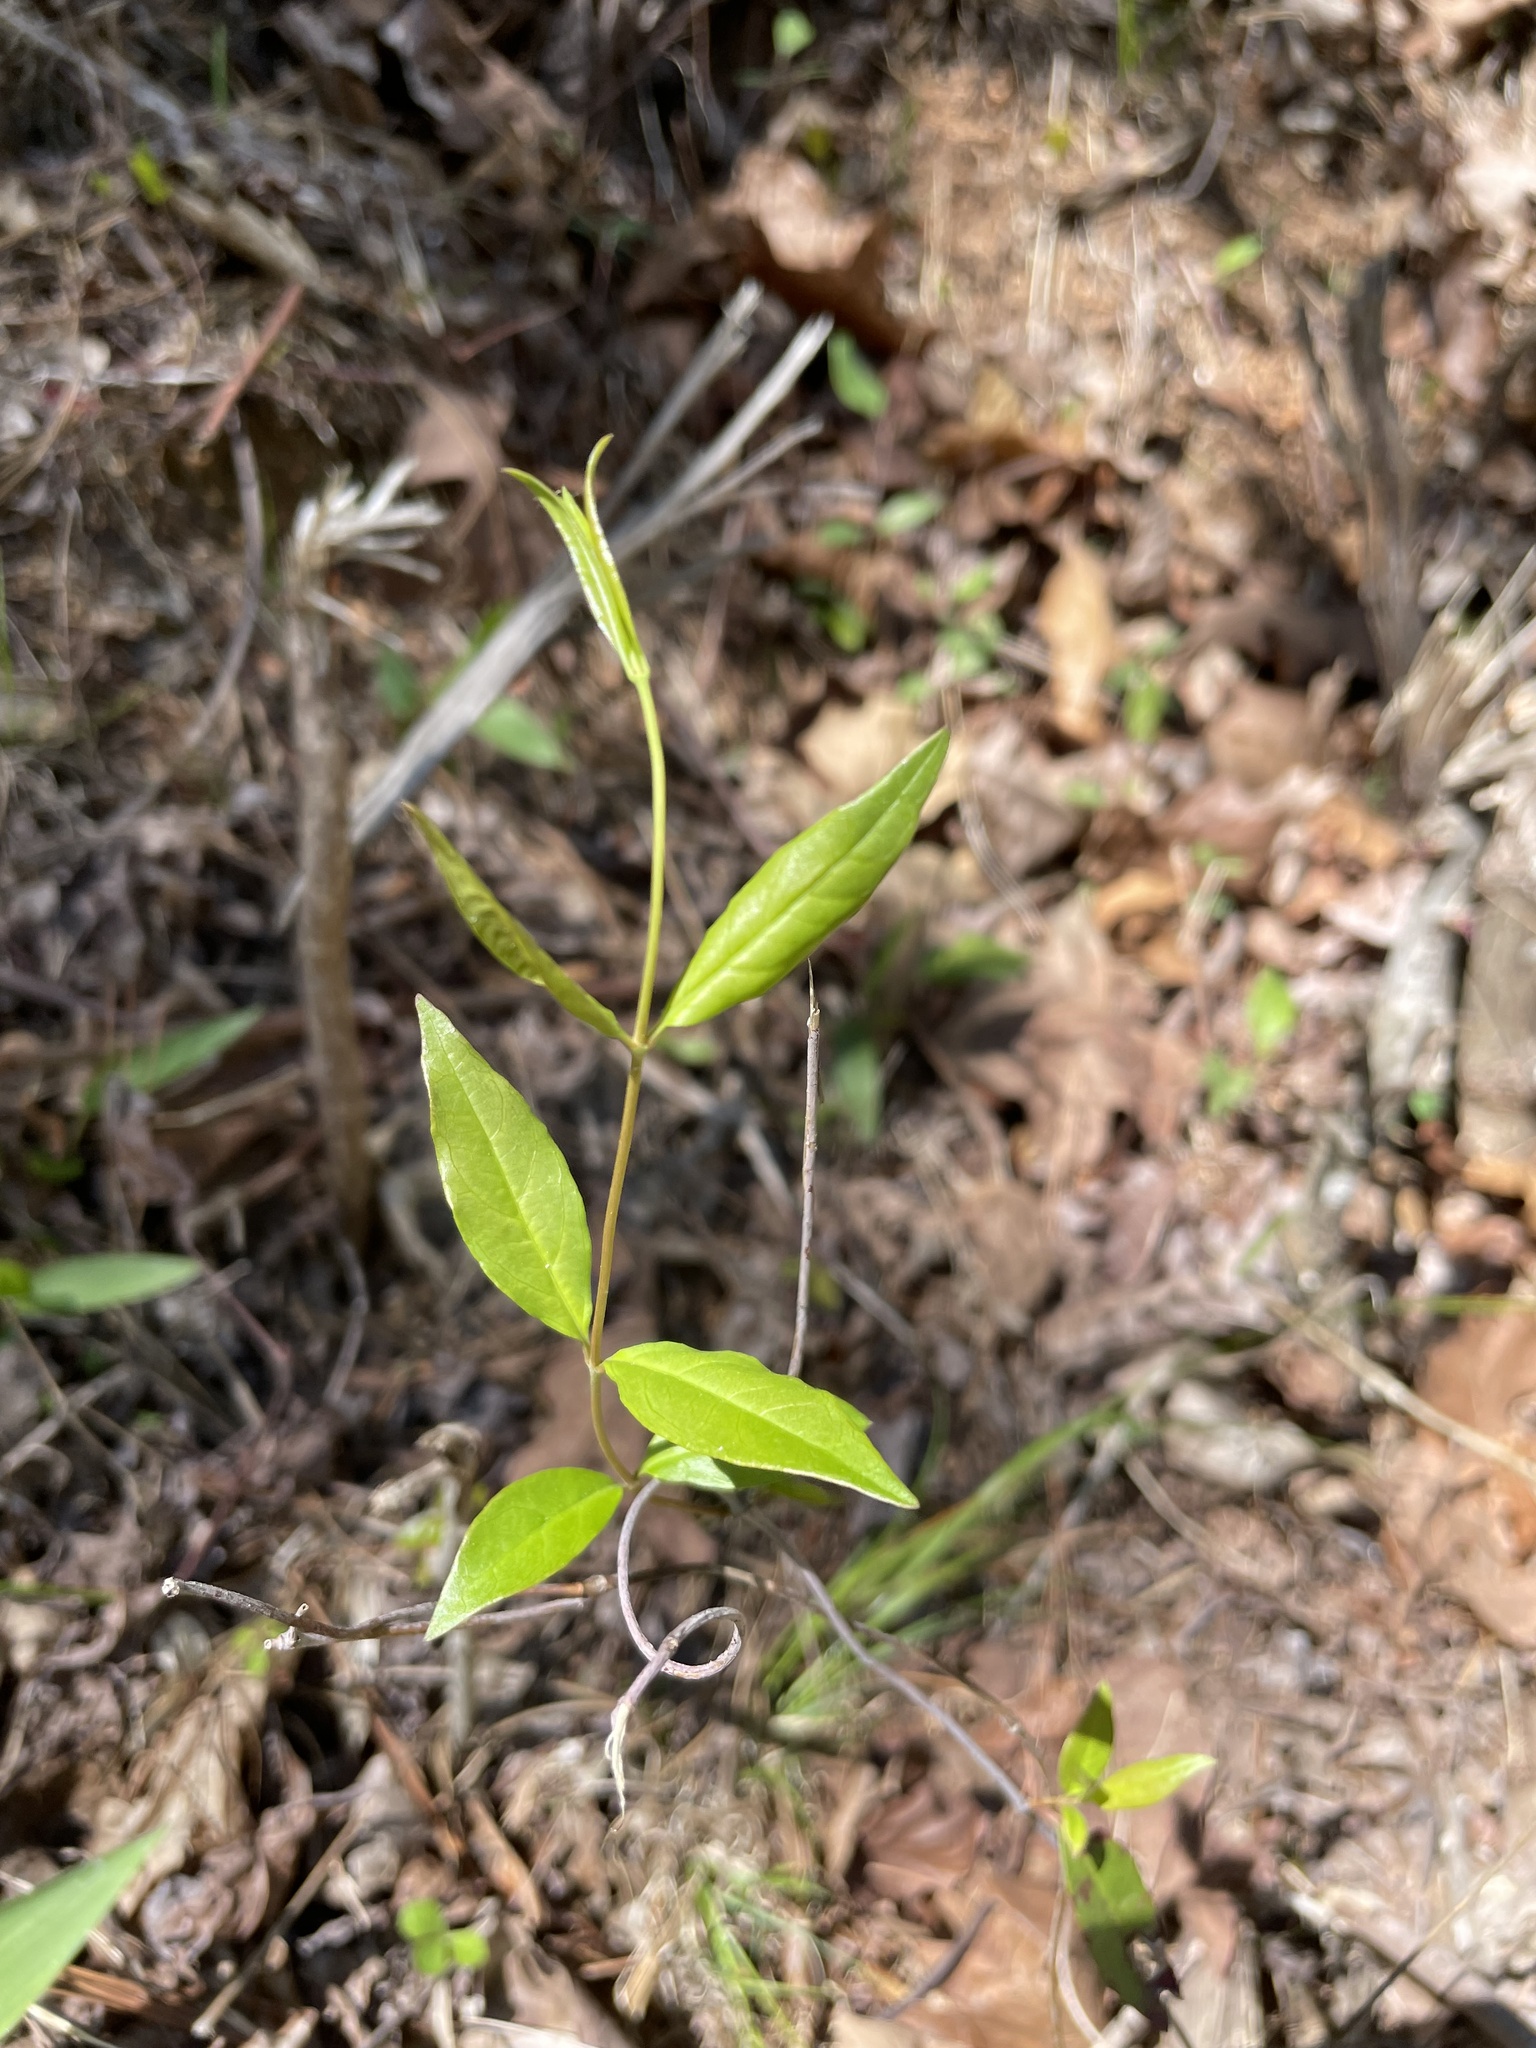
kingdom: Plantae
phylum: Tracheophyta
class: Magnoliopsida
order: Gentianales
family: Gelsemiaceae
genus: Gelsemium
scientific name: Gelsemium sempervirens
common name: Carolina-jasmine
